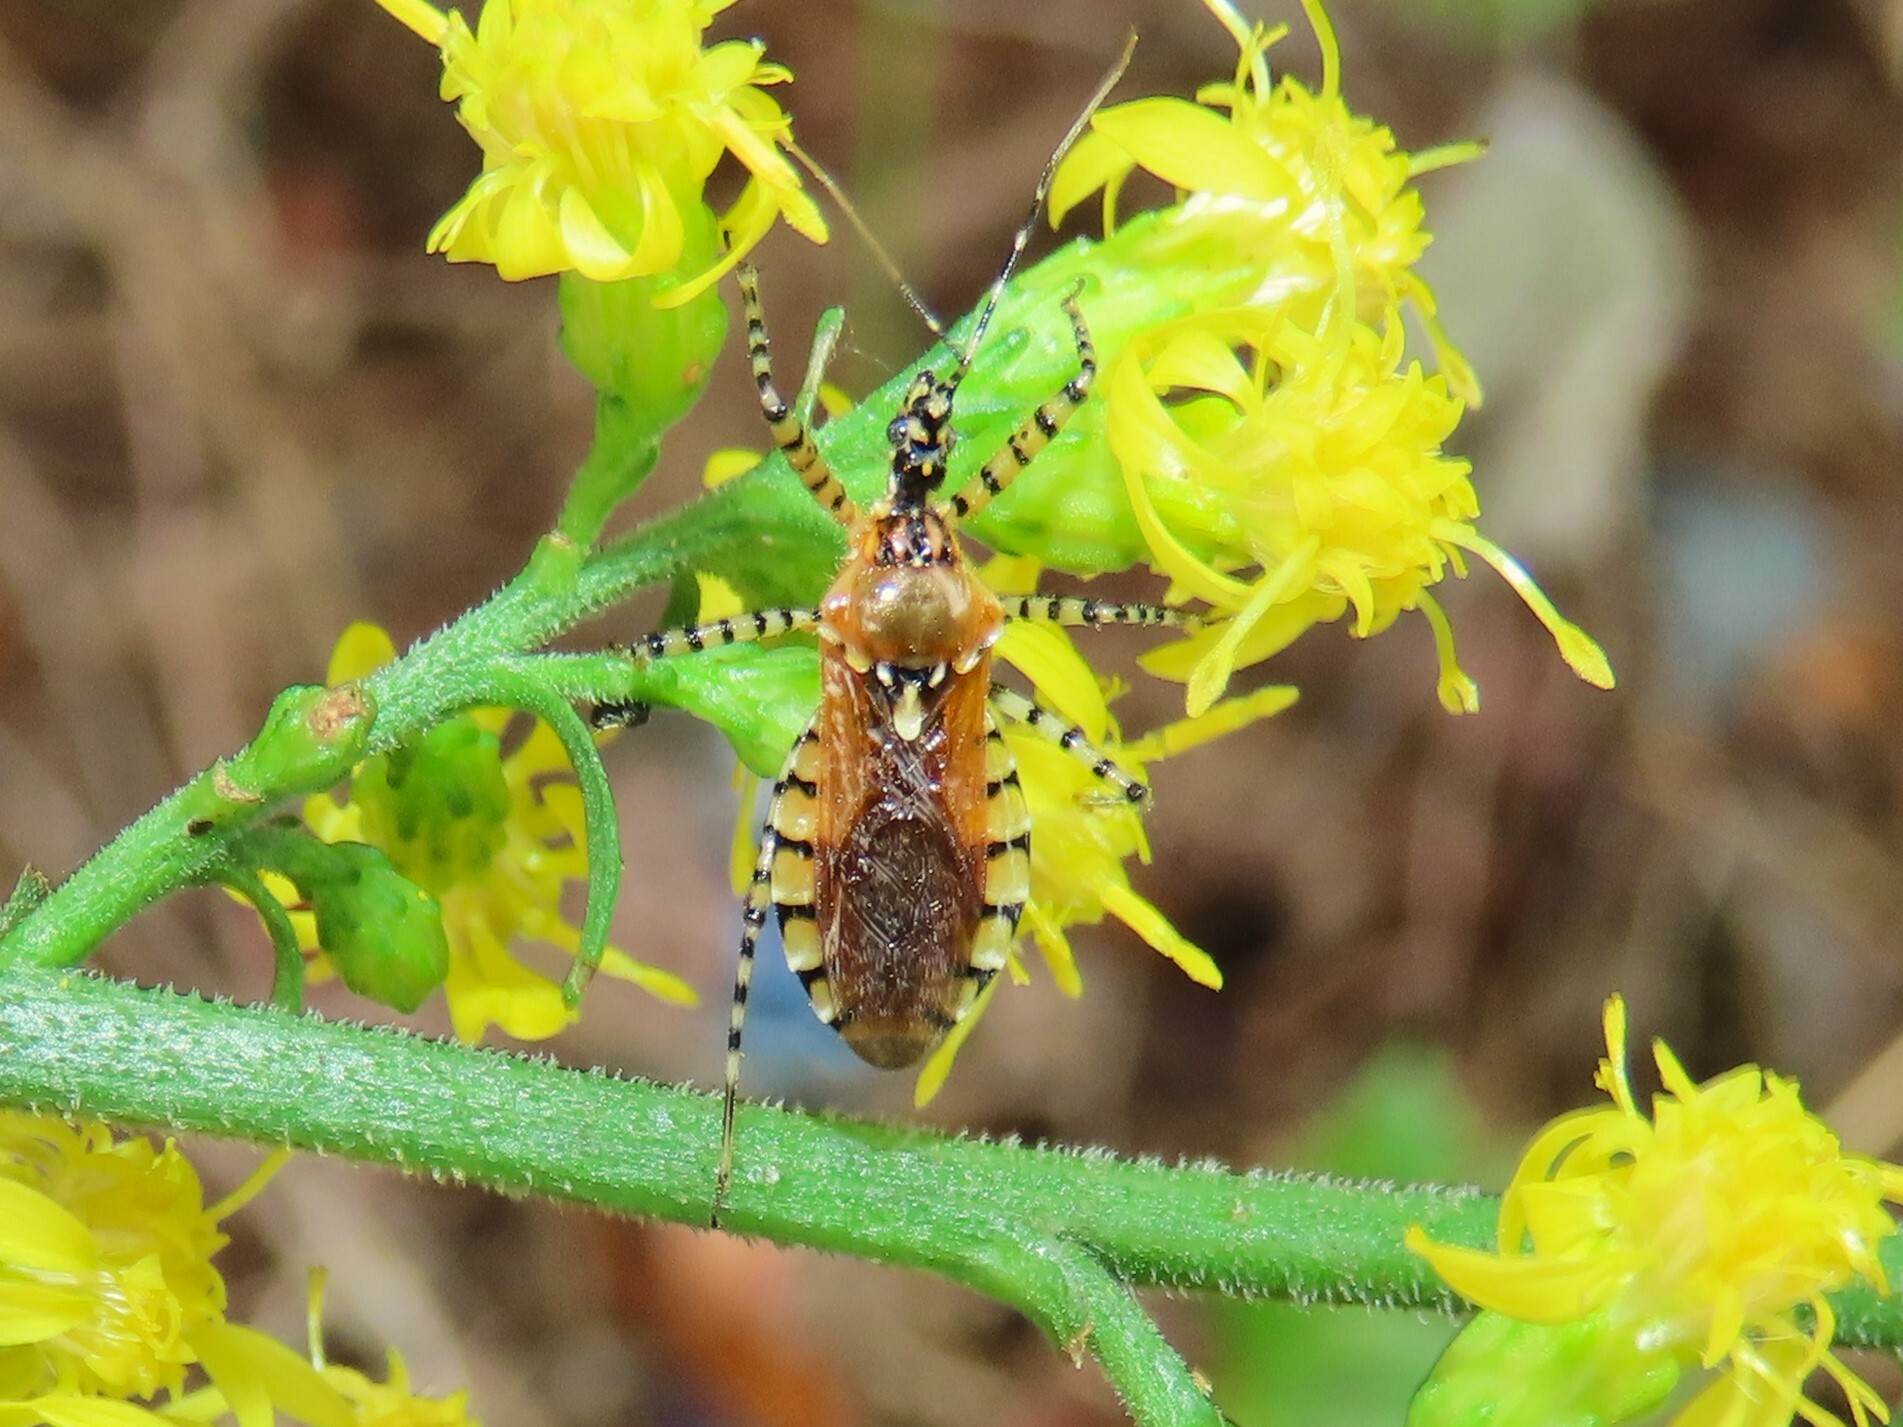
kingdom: Animalia
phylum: Arthropoda
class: Insecta
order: Hemiptera
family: Reduviidae
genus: Pselliopus
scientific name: Pselliopus cinctus
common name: Ringed assassin bug
